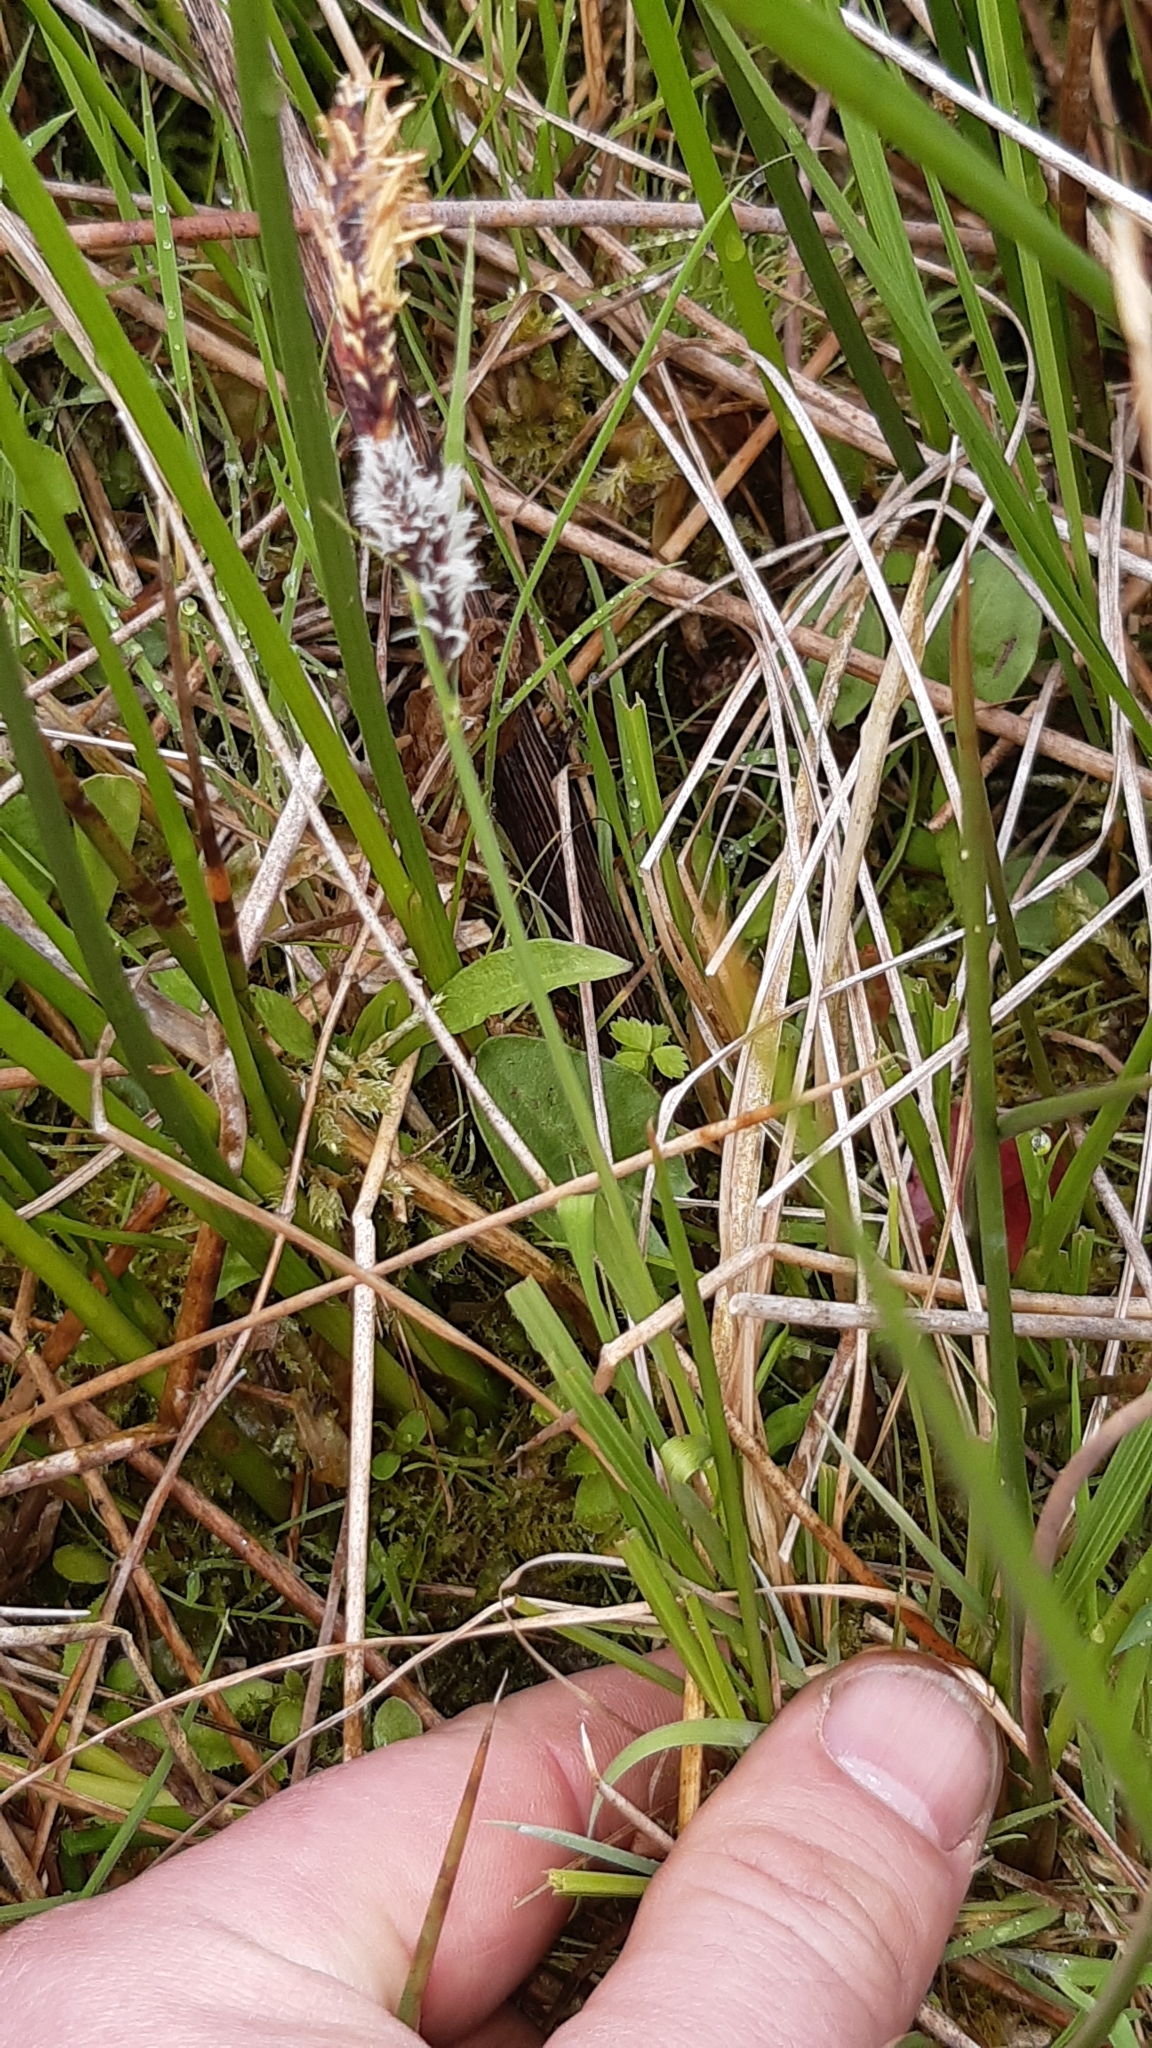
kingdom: Plantae
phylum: Tracheophyta
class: Liliopsida
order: Poales
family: Cyperaceae
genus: Carex
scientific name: Carex nigra
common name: Common sedge
